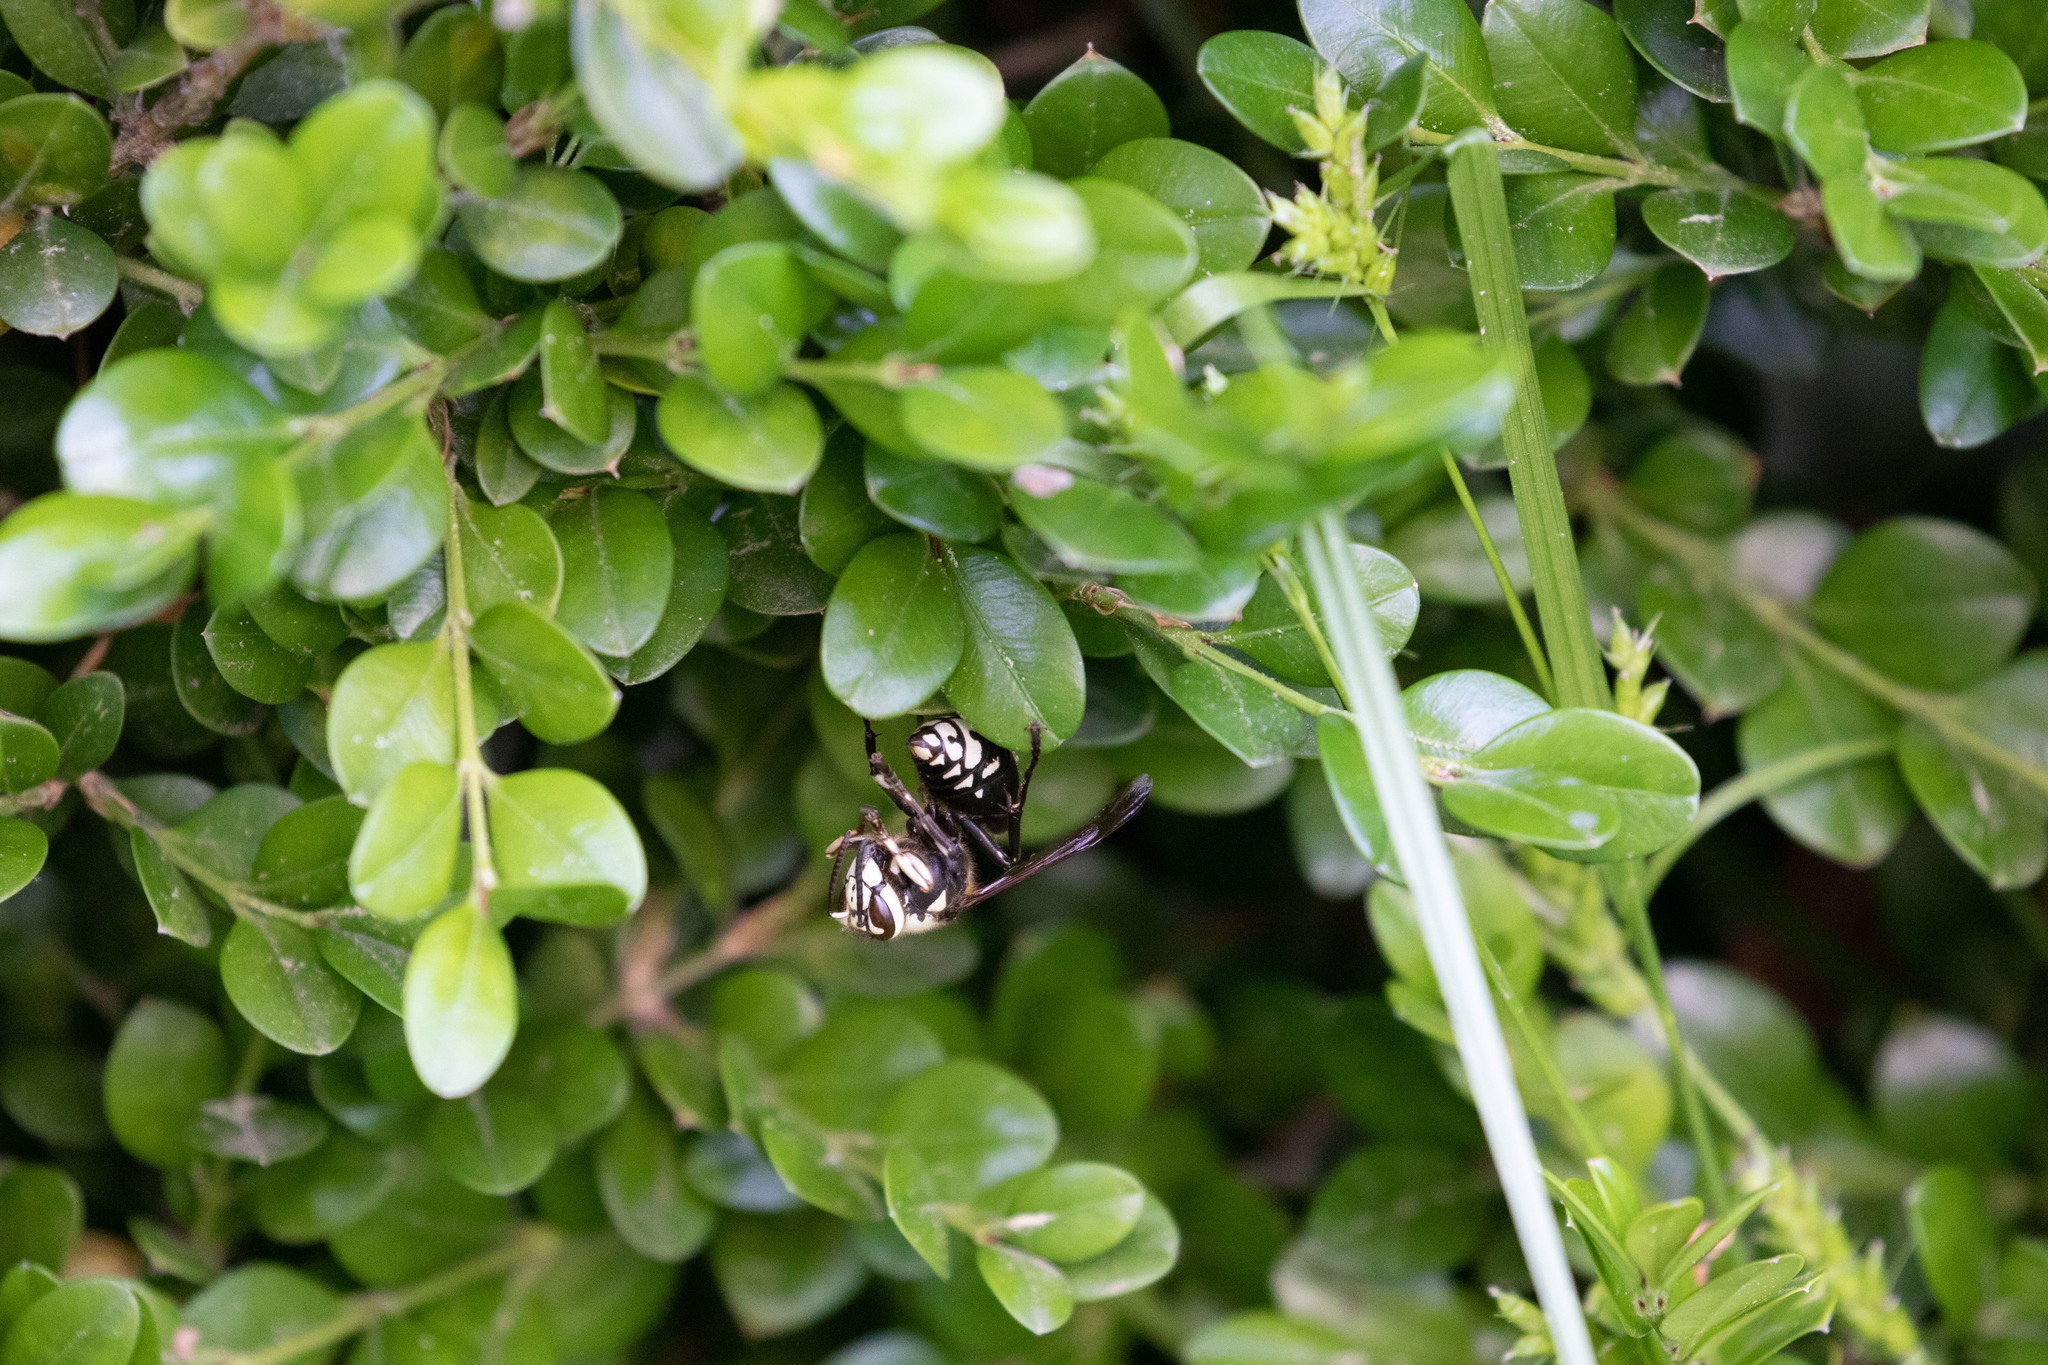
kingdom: Animalia
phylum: Arthropoda
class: Insecta
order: Hymenoptera
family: Vespidae
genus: Dolichovespula
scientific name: Dolichovespula maculata
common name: Bald-faced hornet
